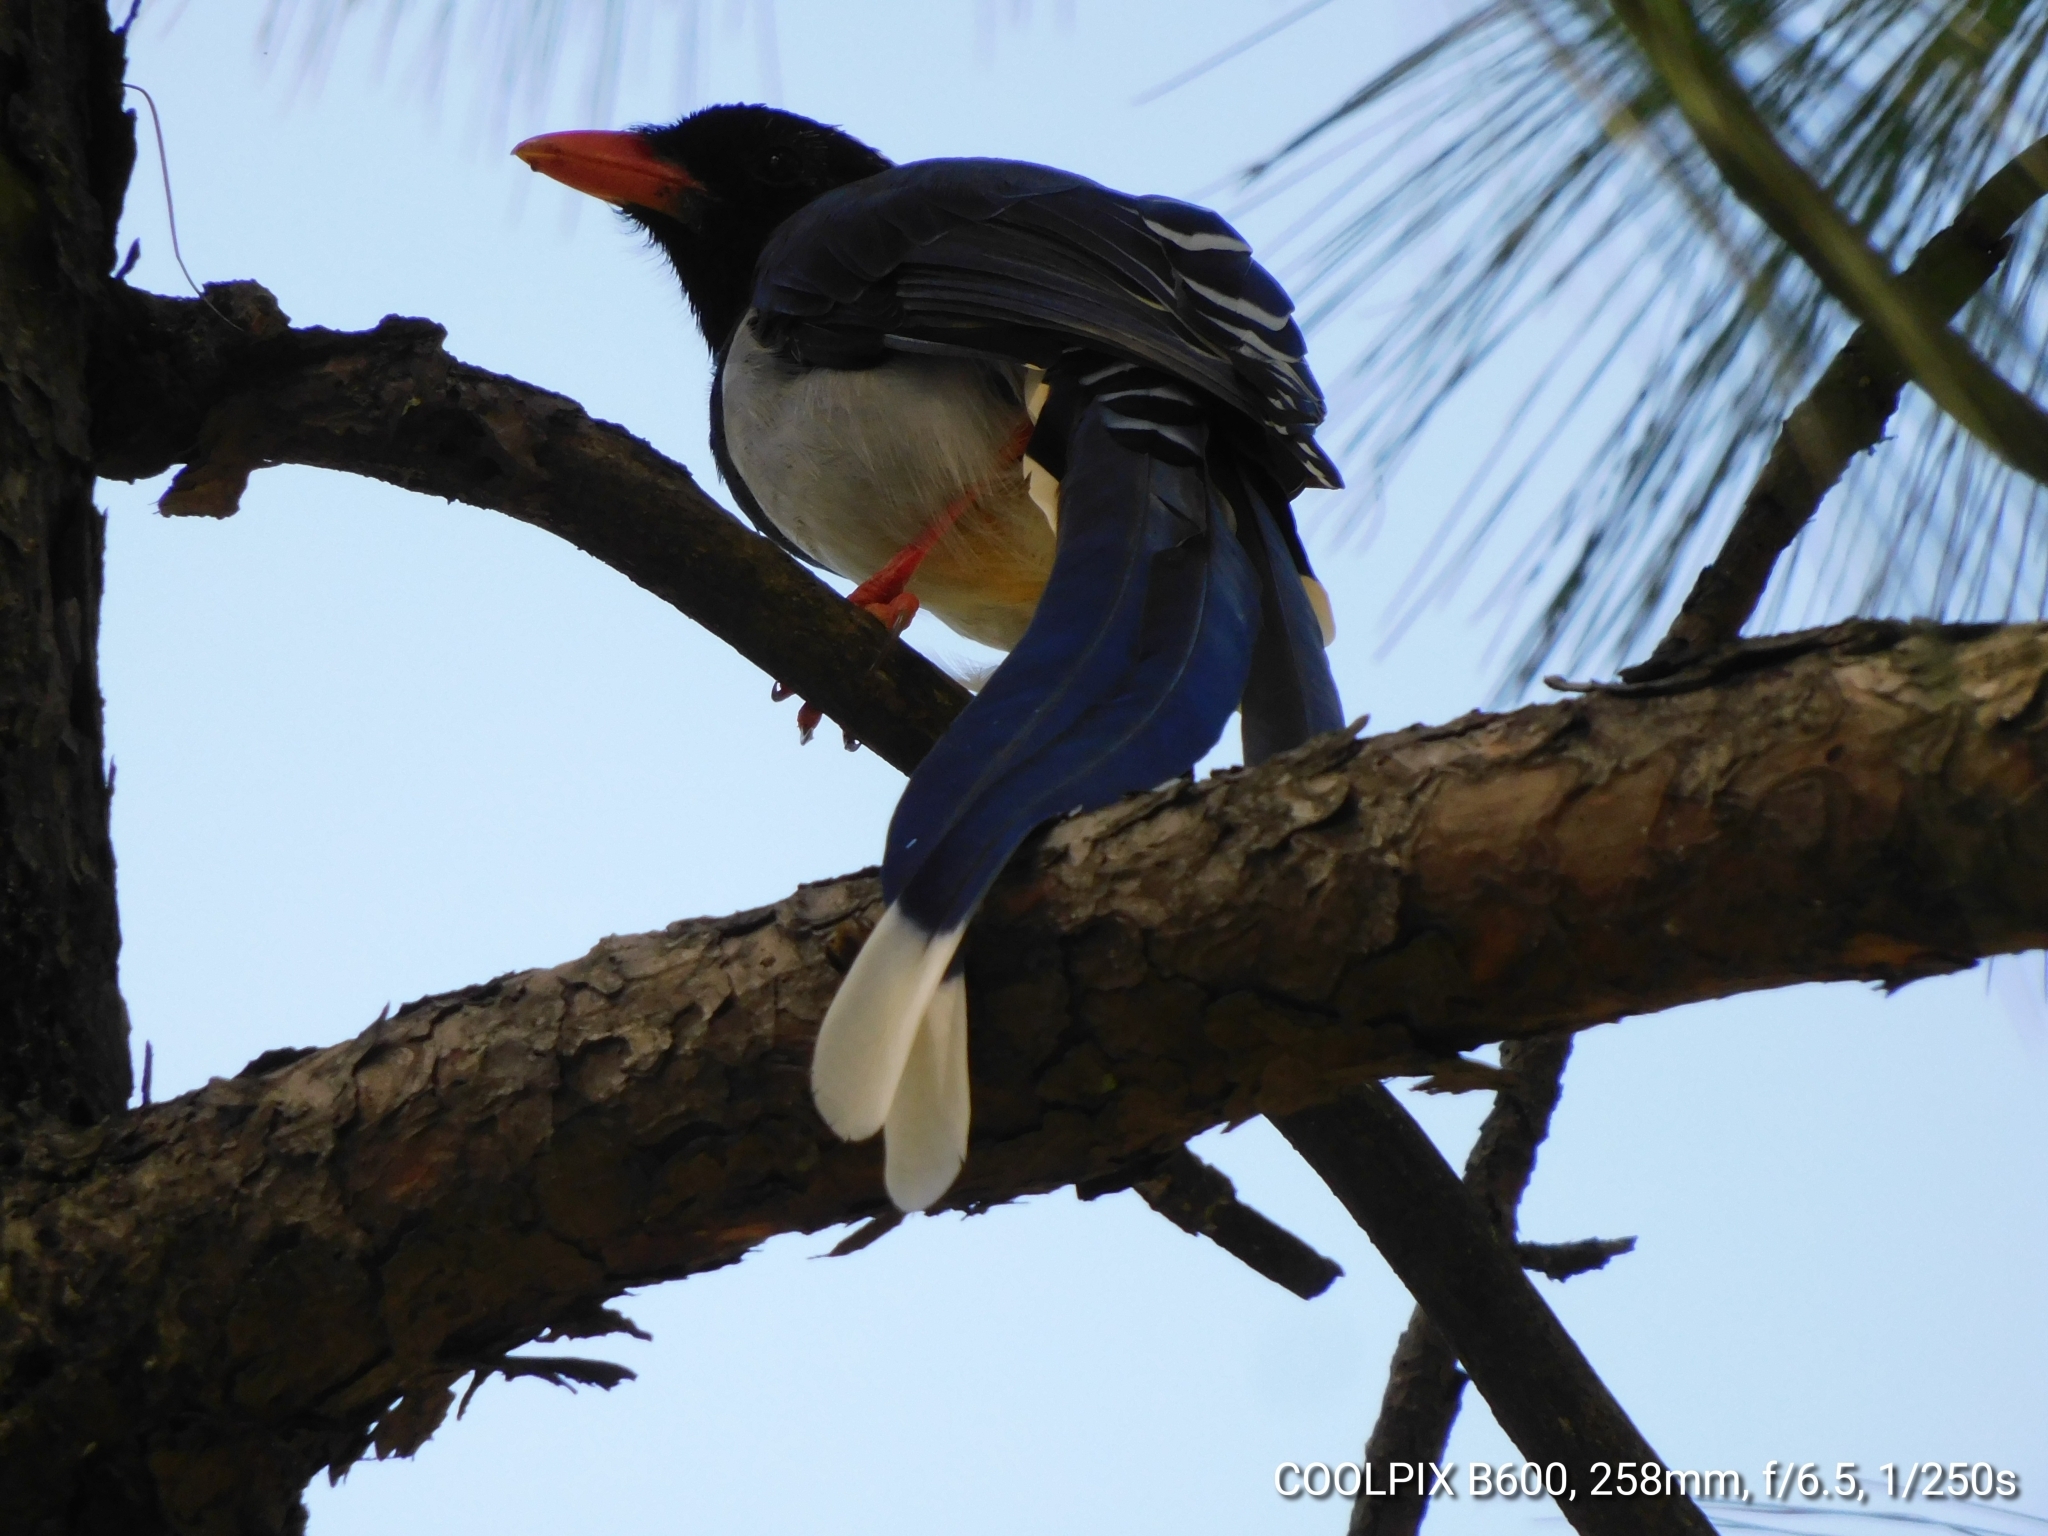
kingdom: Animalia
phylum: Chordata
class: Aves
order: Passeriformes
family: Corvidae
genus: Urocissa
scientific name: Urocissa erythroryncha
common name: Red-billed blue magpie
